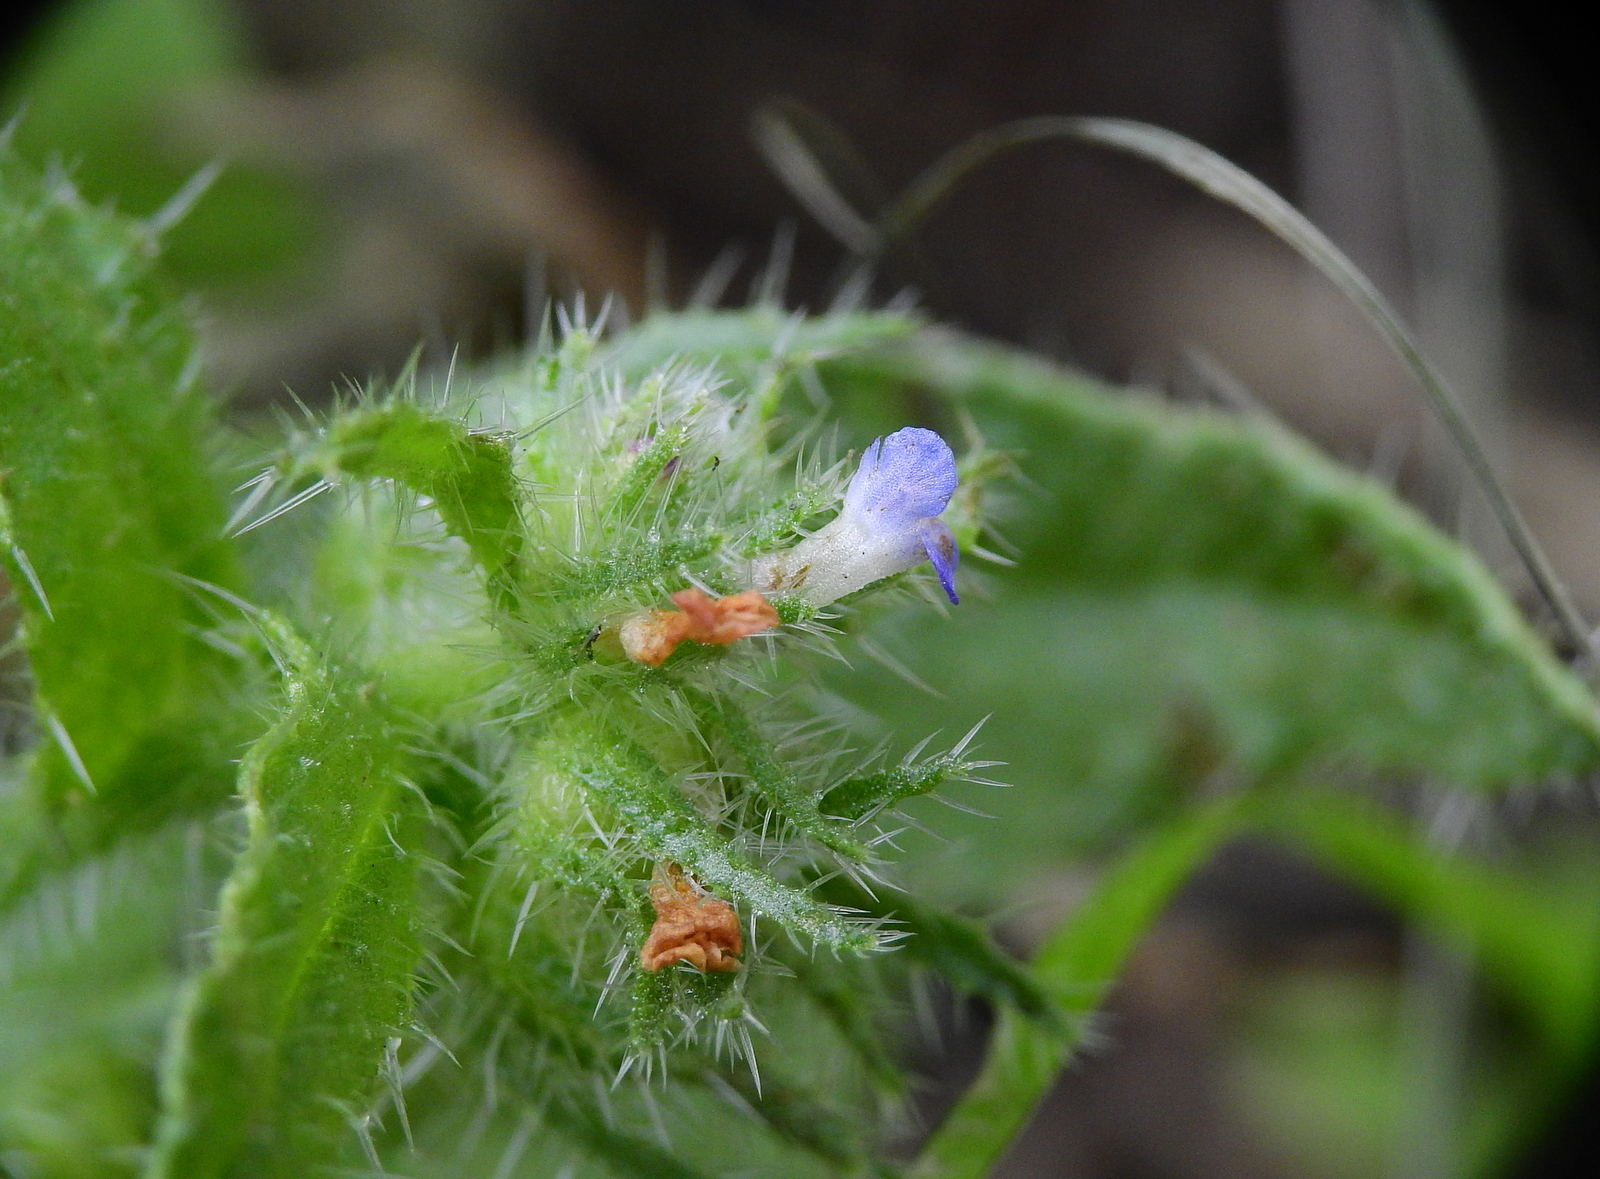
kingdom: Plantae
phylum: Tracheophyta
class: Magnoliopsida
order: Boraginales
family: Boraginaceae
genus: Lycopsis
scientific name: Lycopsis arvensis
